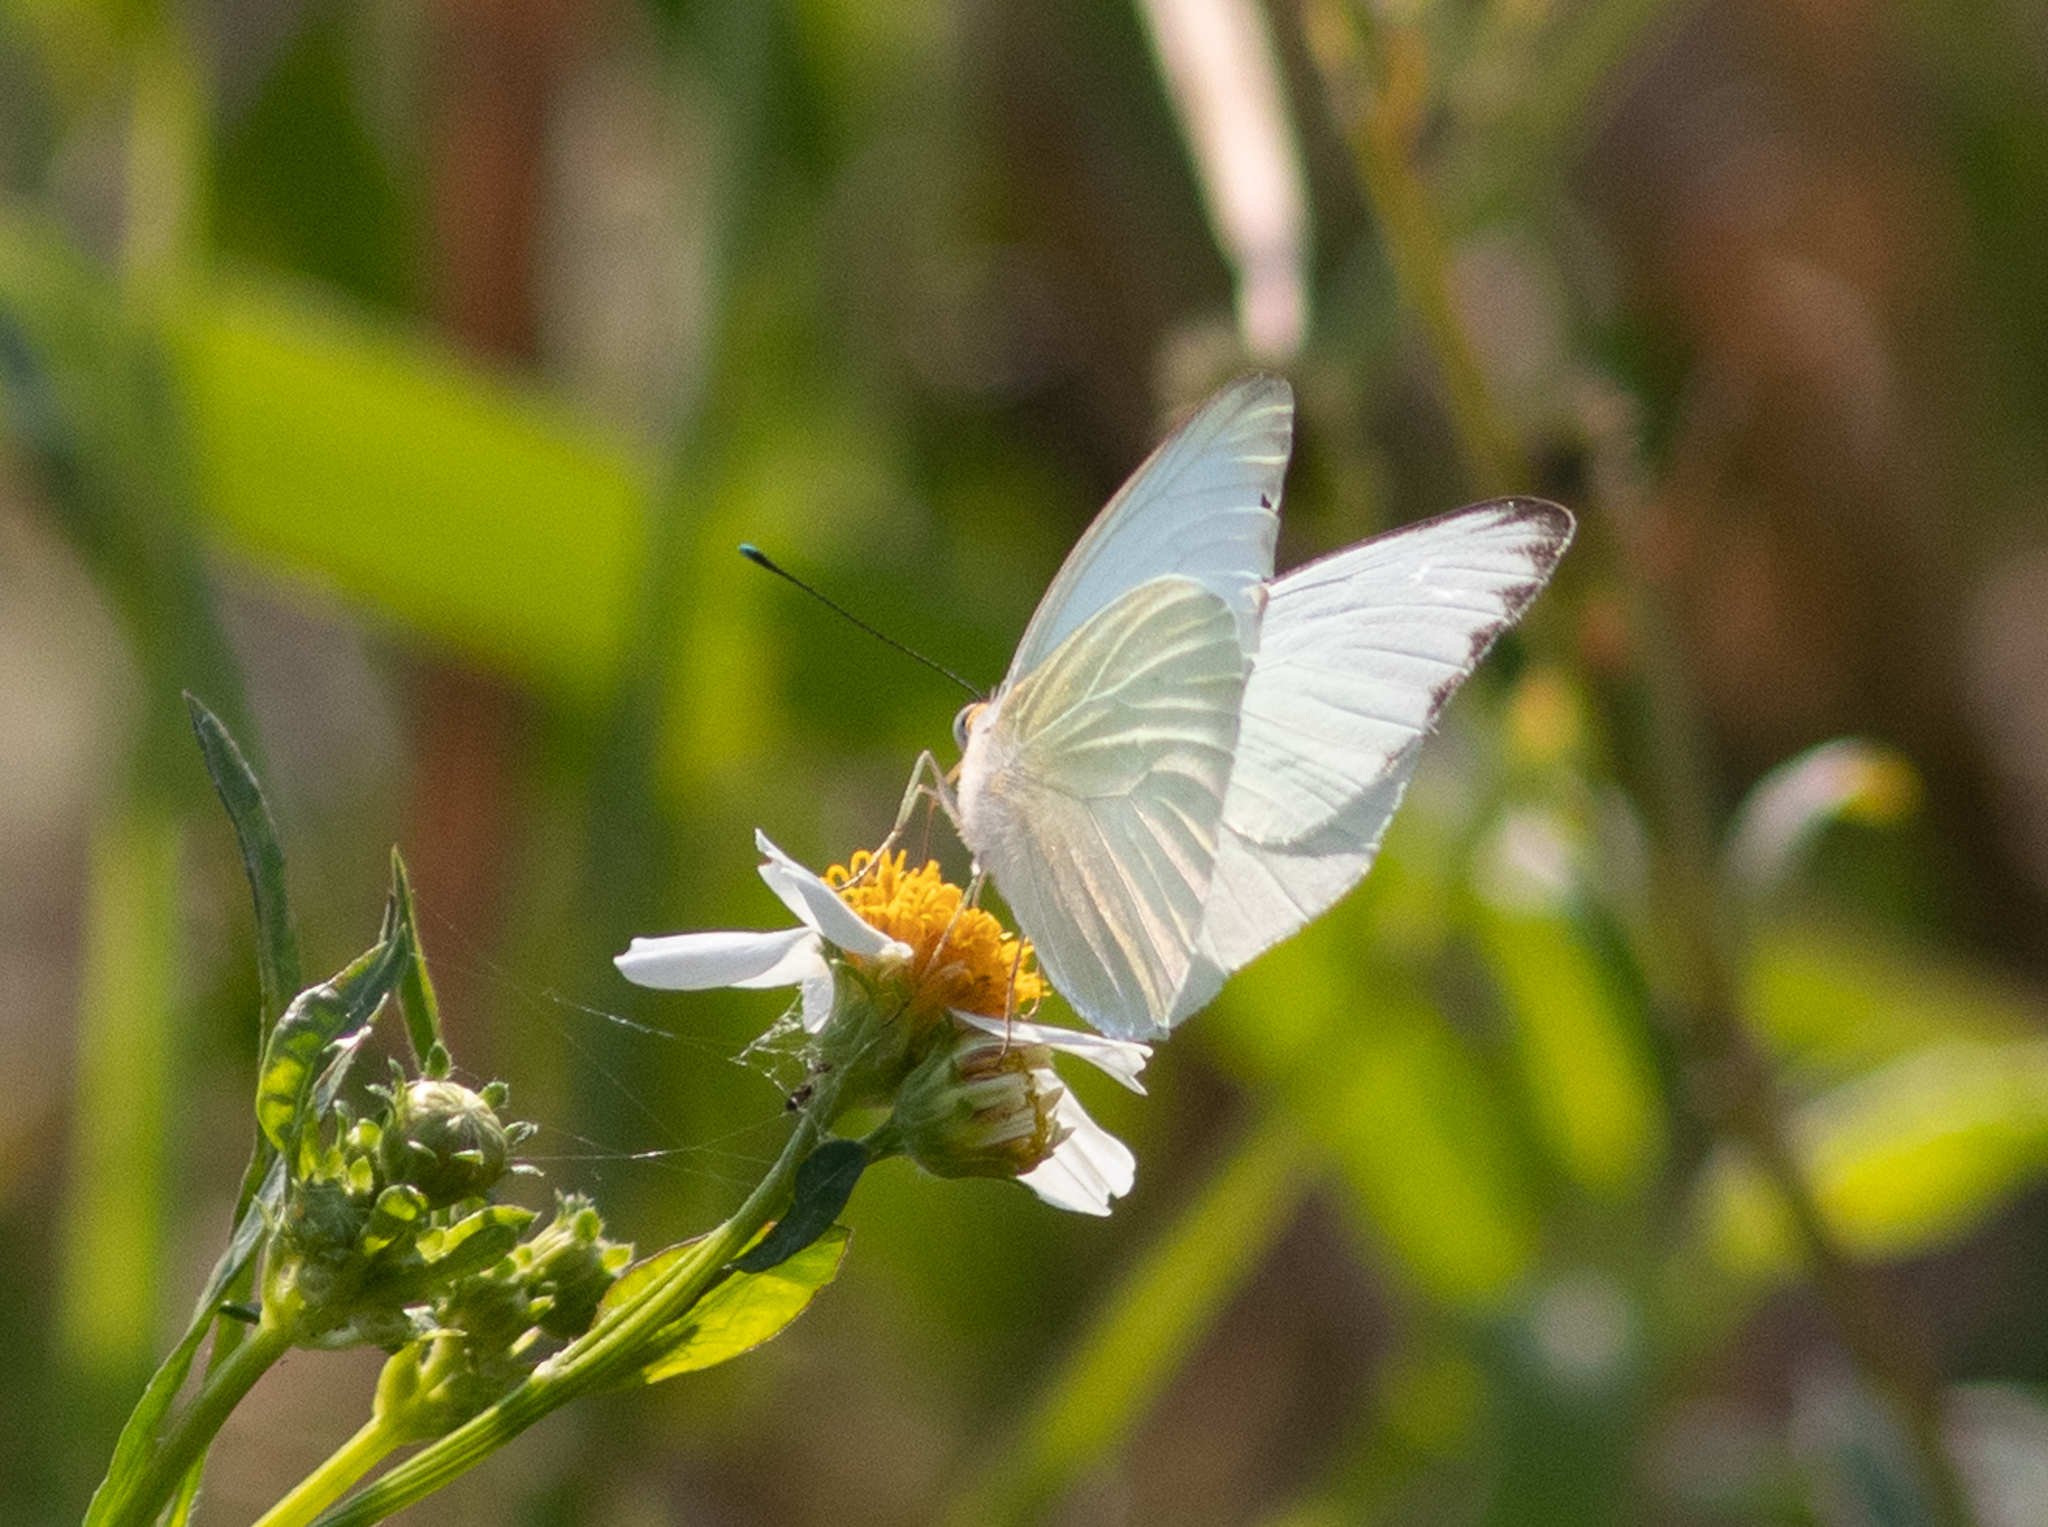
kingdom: Animalia
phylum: Arthropoda
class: Insecta
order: Lepidoptera
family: Pieridae
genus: Ascia
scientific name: Ascia monuste
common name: Great southern white
